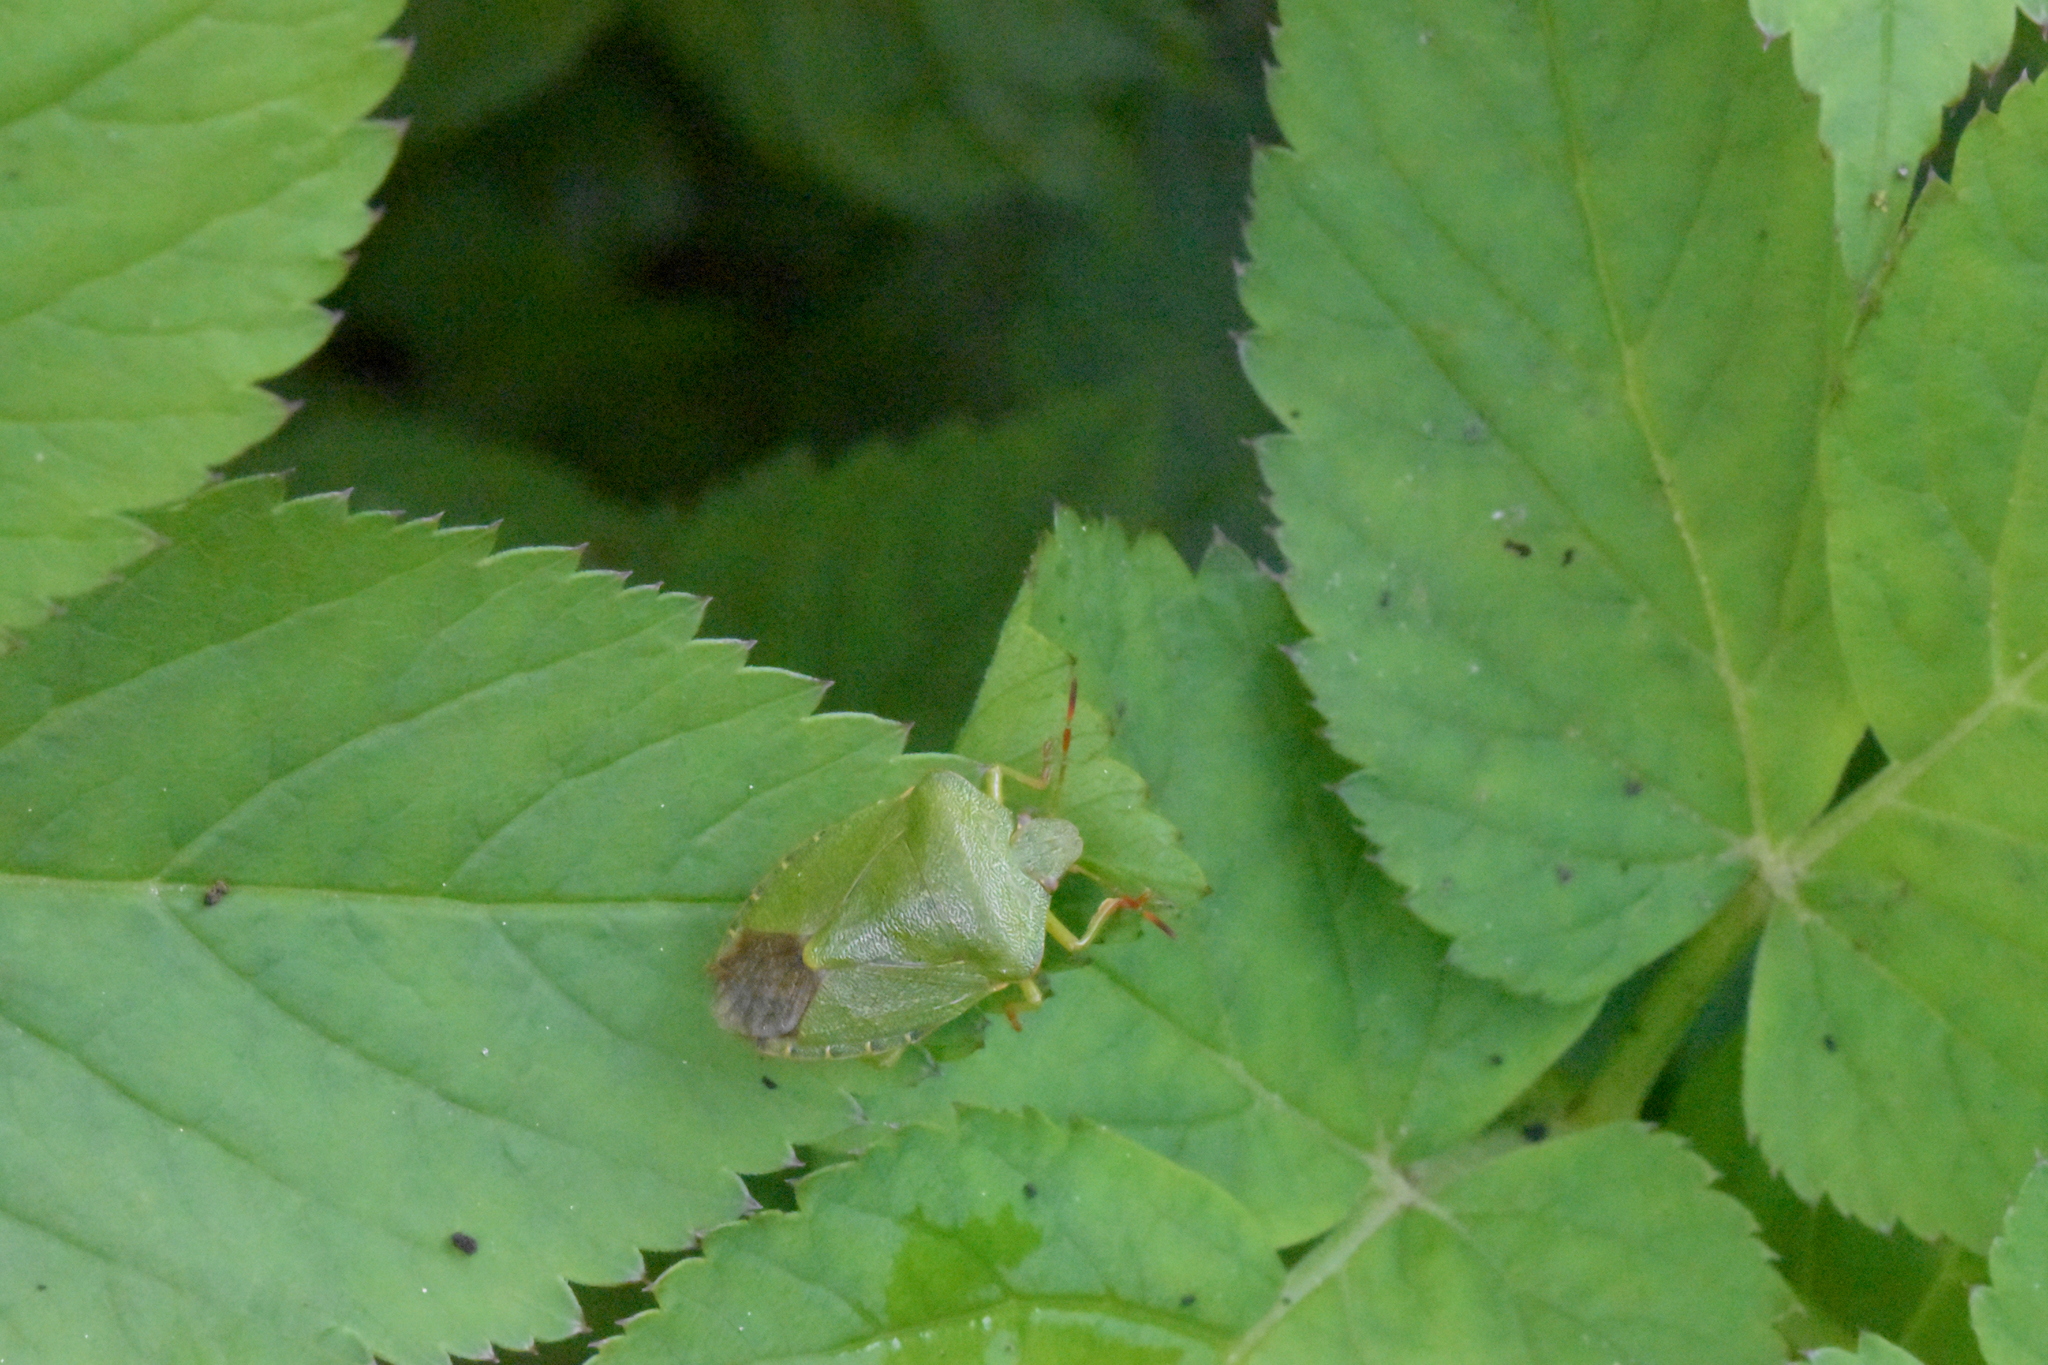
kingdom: Animalia
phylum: Arthropoda
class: Insecta
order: Hemiptera
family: Pentatomidae
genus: Palomena
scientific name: Palomena prasina
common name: Green shieldbug
